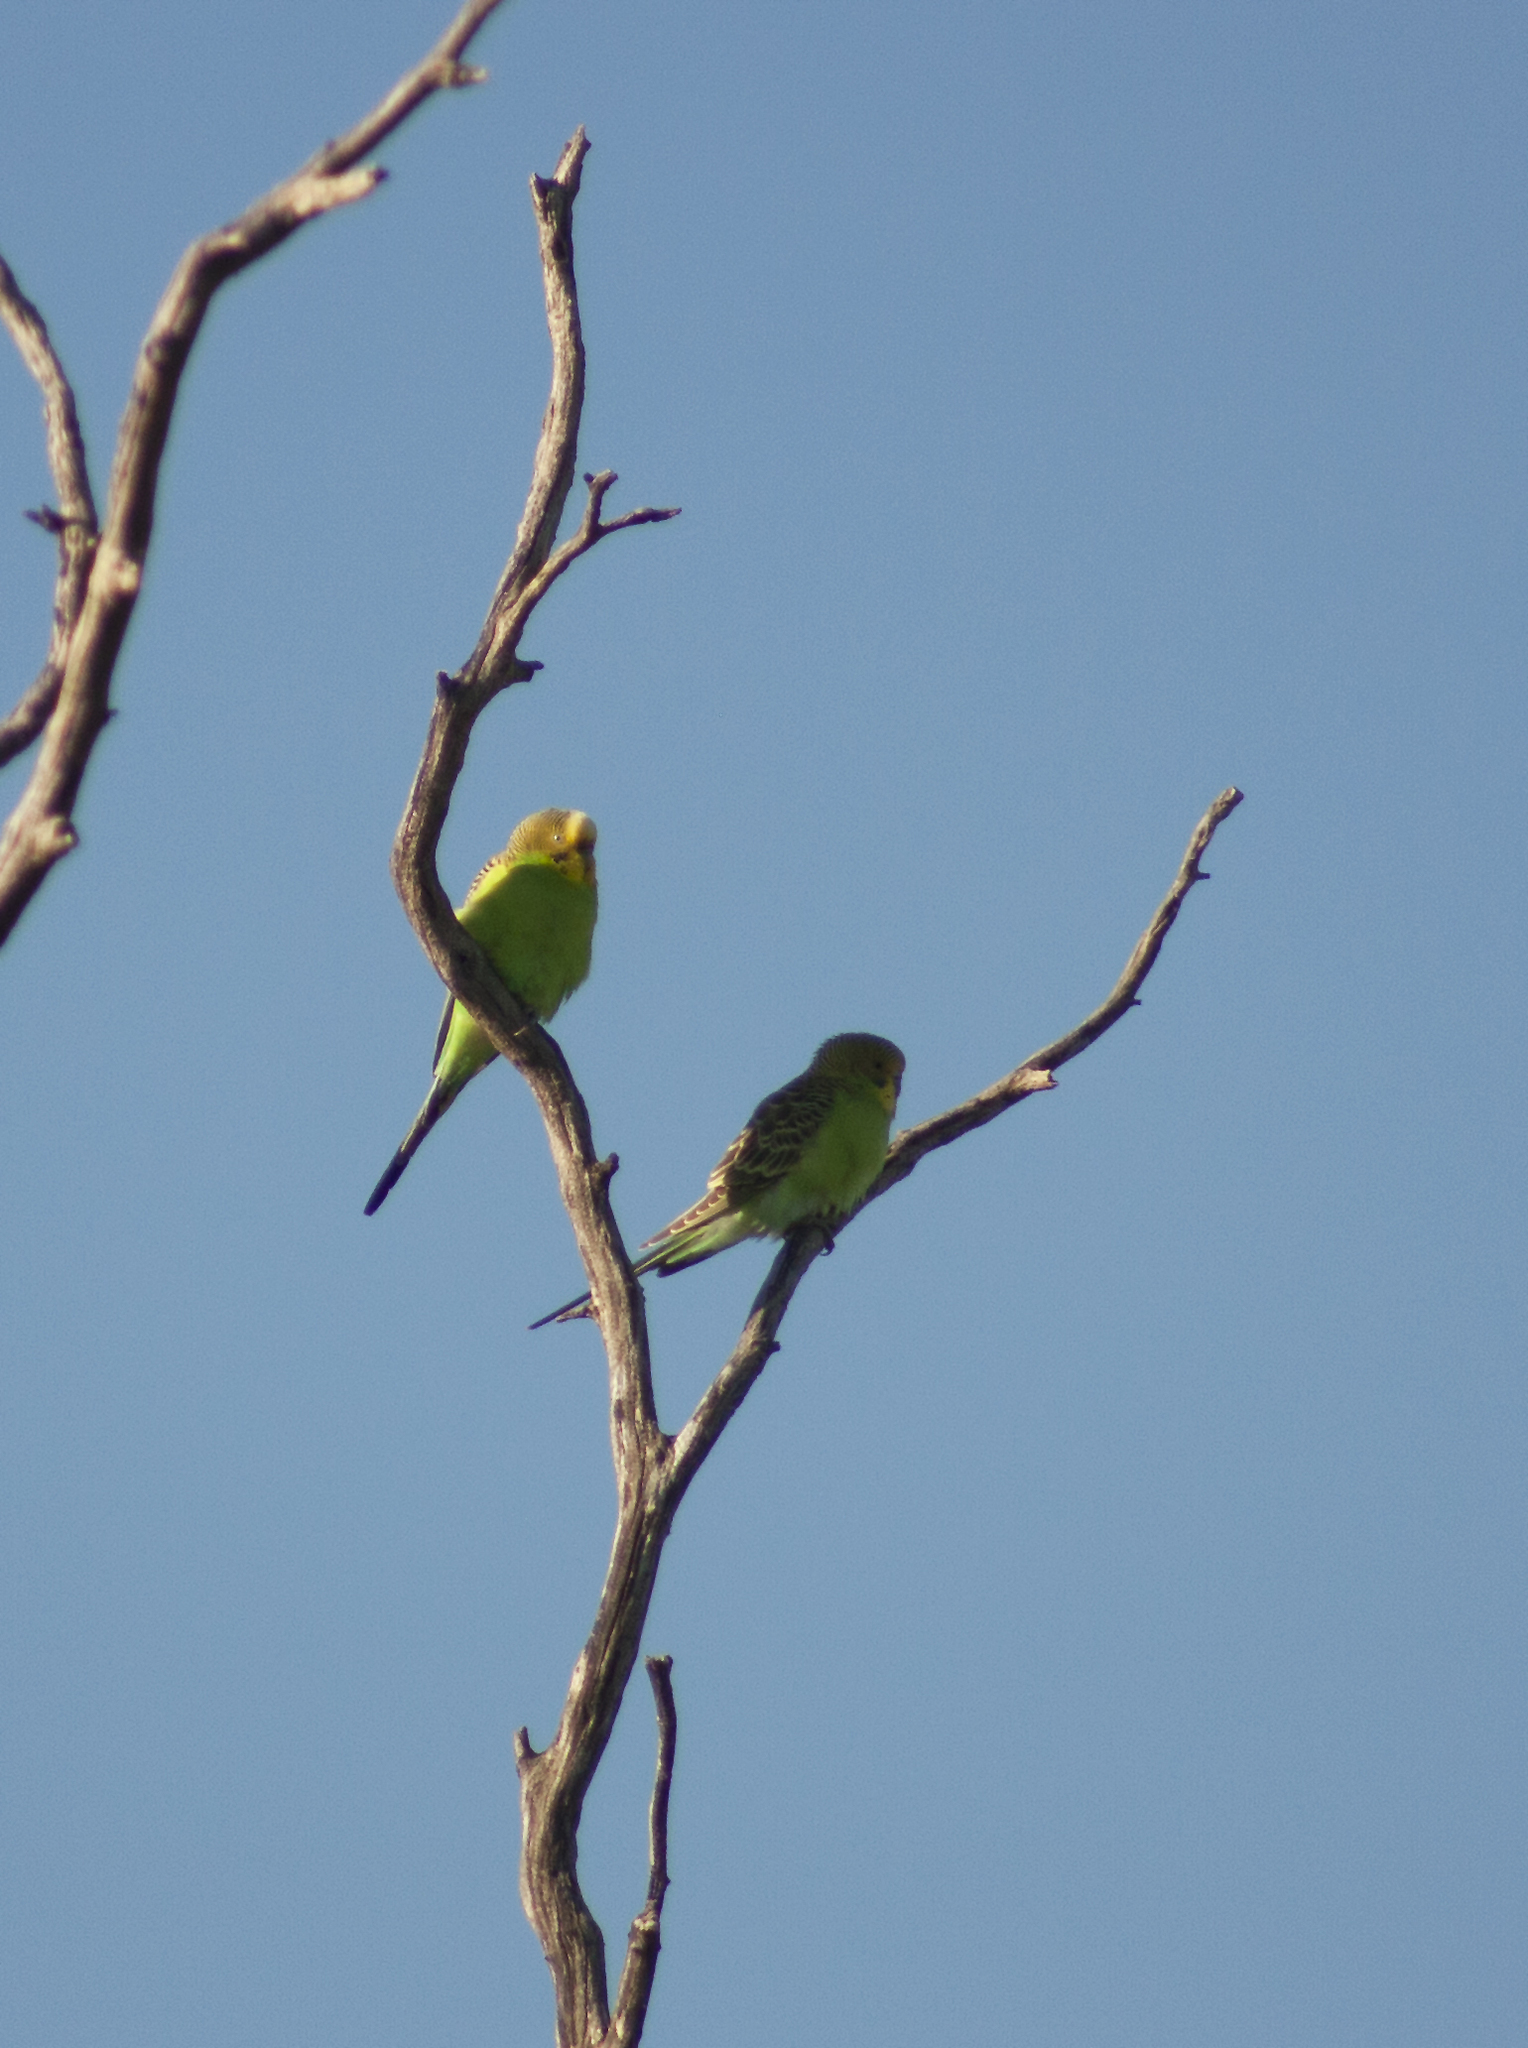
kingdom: Animalia
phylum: Chordata
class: Aves
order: Psittaciformes
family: Psittacidae
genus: Melopsittacus
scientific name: Melopsittacus undulatus
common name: Budgerigar
